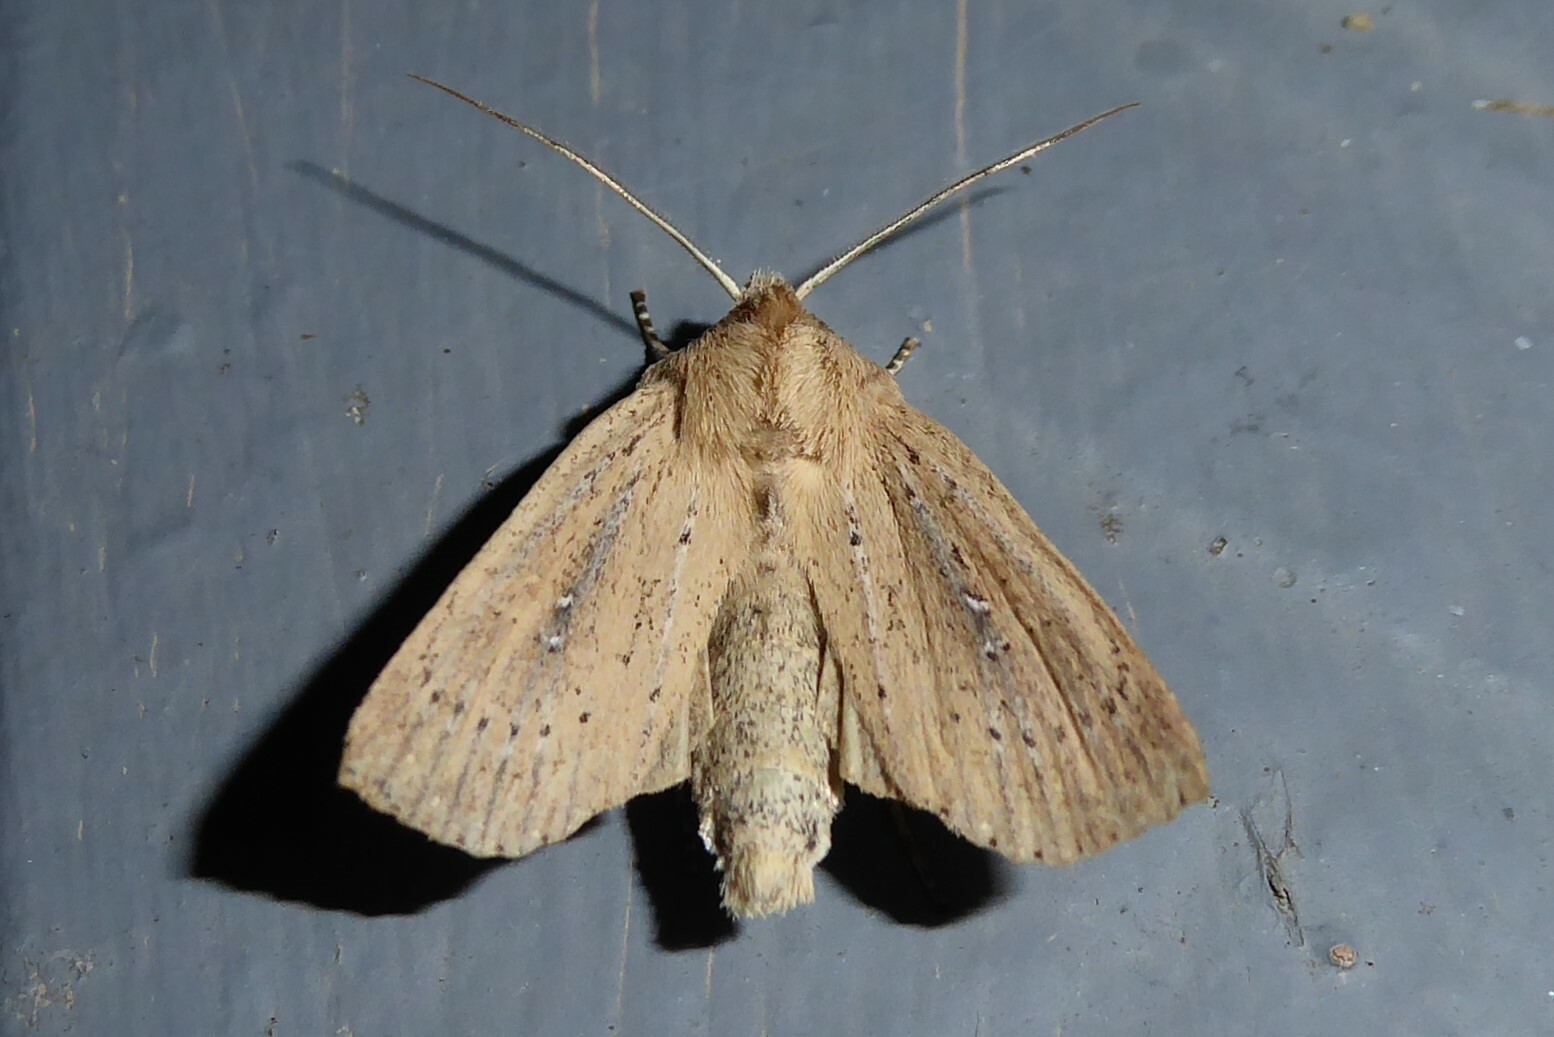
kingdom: Animalia
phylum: Arthropoda
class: Insecta
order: Lepidoptera
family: Noctuidae
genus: Ichneutica
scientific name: Ichneutica
